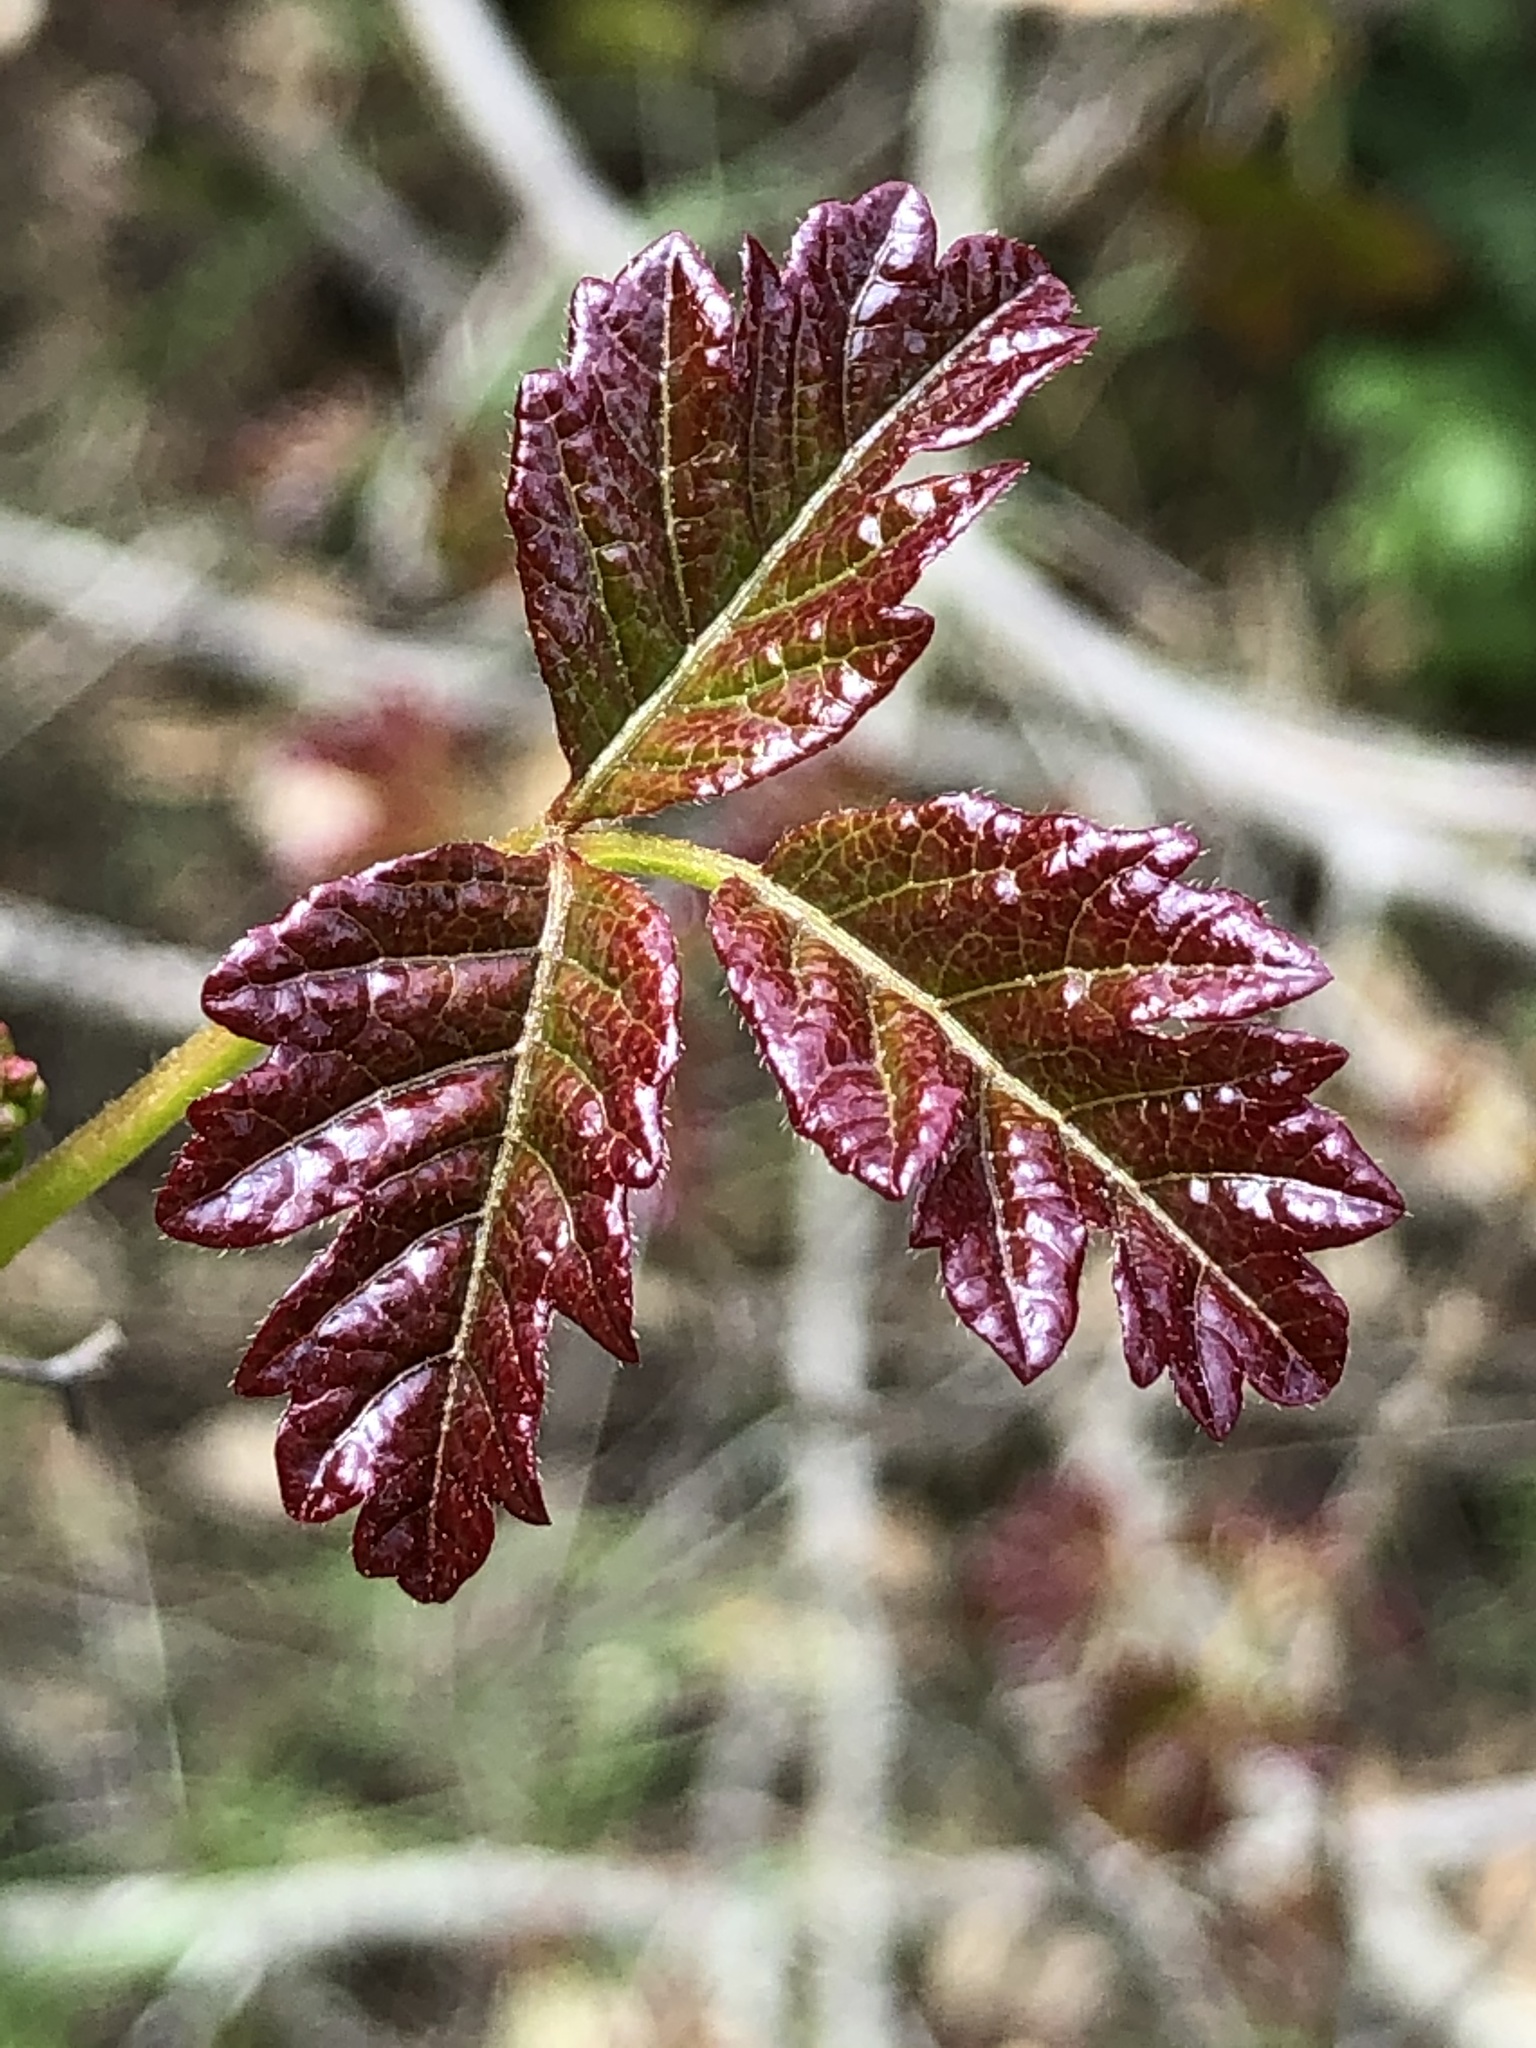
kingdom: Plantae
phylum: Tracheophyta
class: Magnoliopsida
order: Sapindales
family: Anacardiaceae
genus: Toxicodendron
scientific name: Toxicodendron diversilobum
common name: Pacific poison-oak
